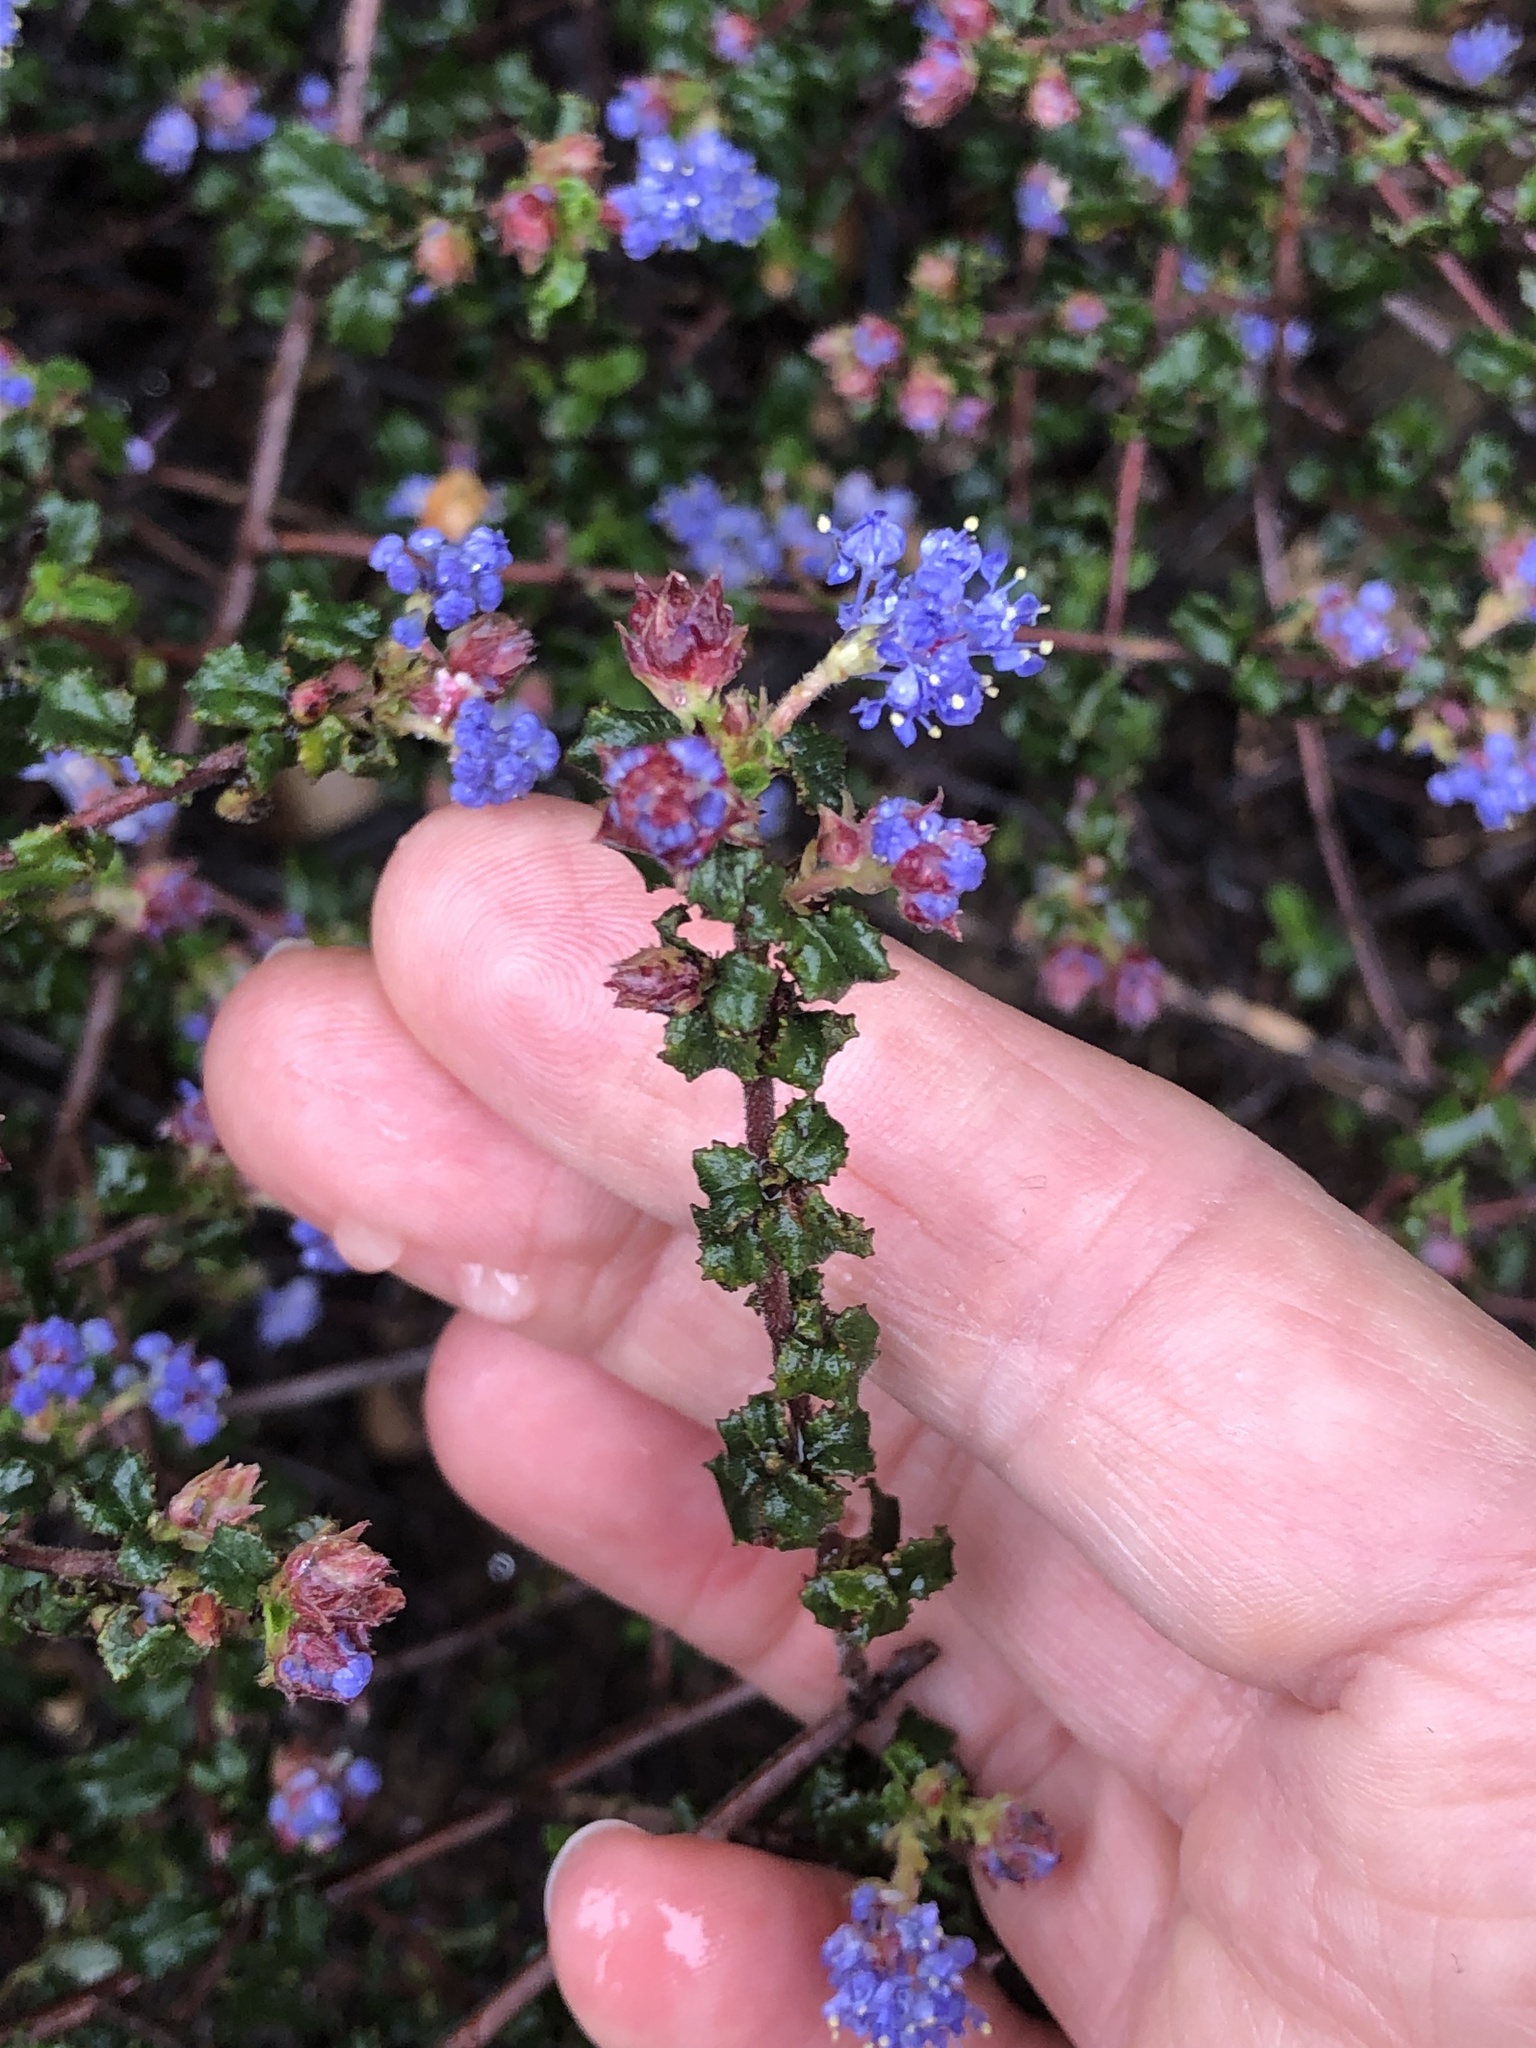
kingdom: Plantae
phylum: Tracheophyta
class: Magnoliopsida
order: Rosales
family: Rhamnaceae
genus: Ceanothus
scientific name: Ceanothus foliosus
